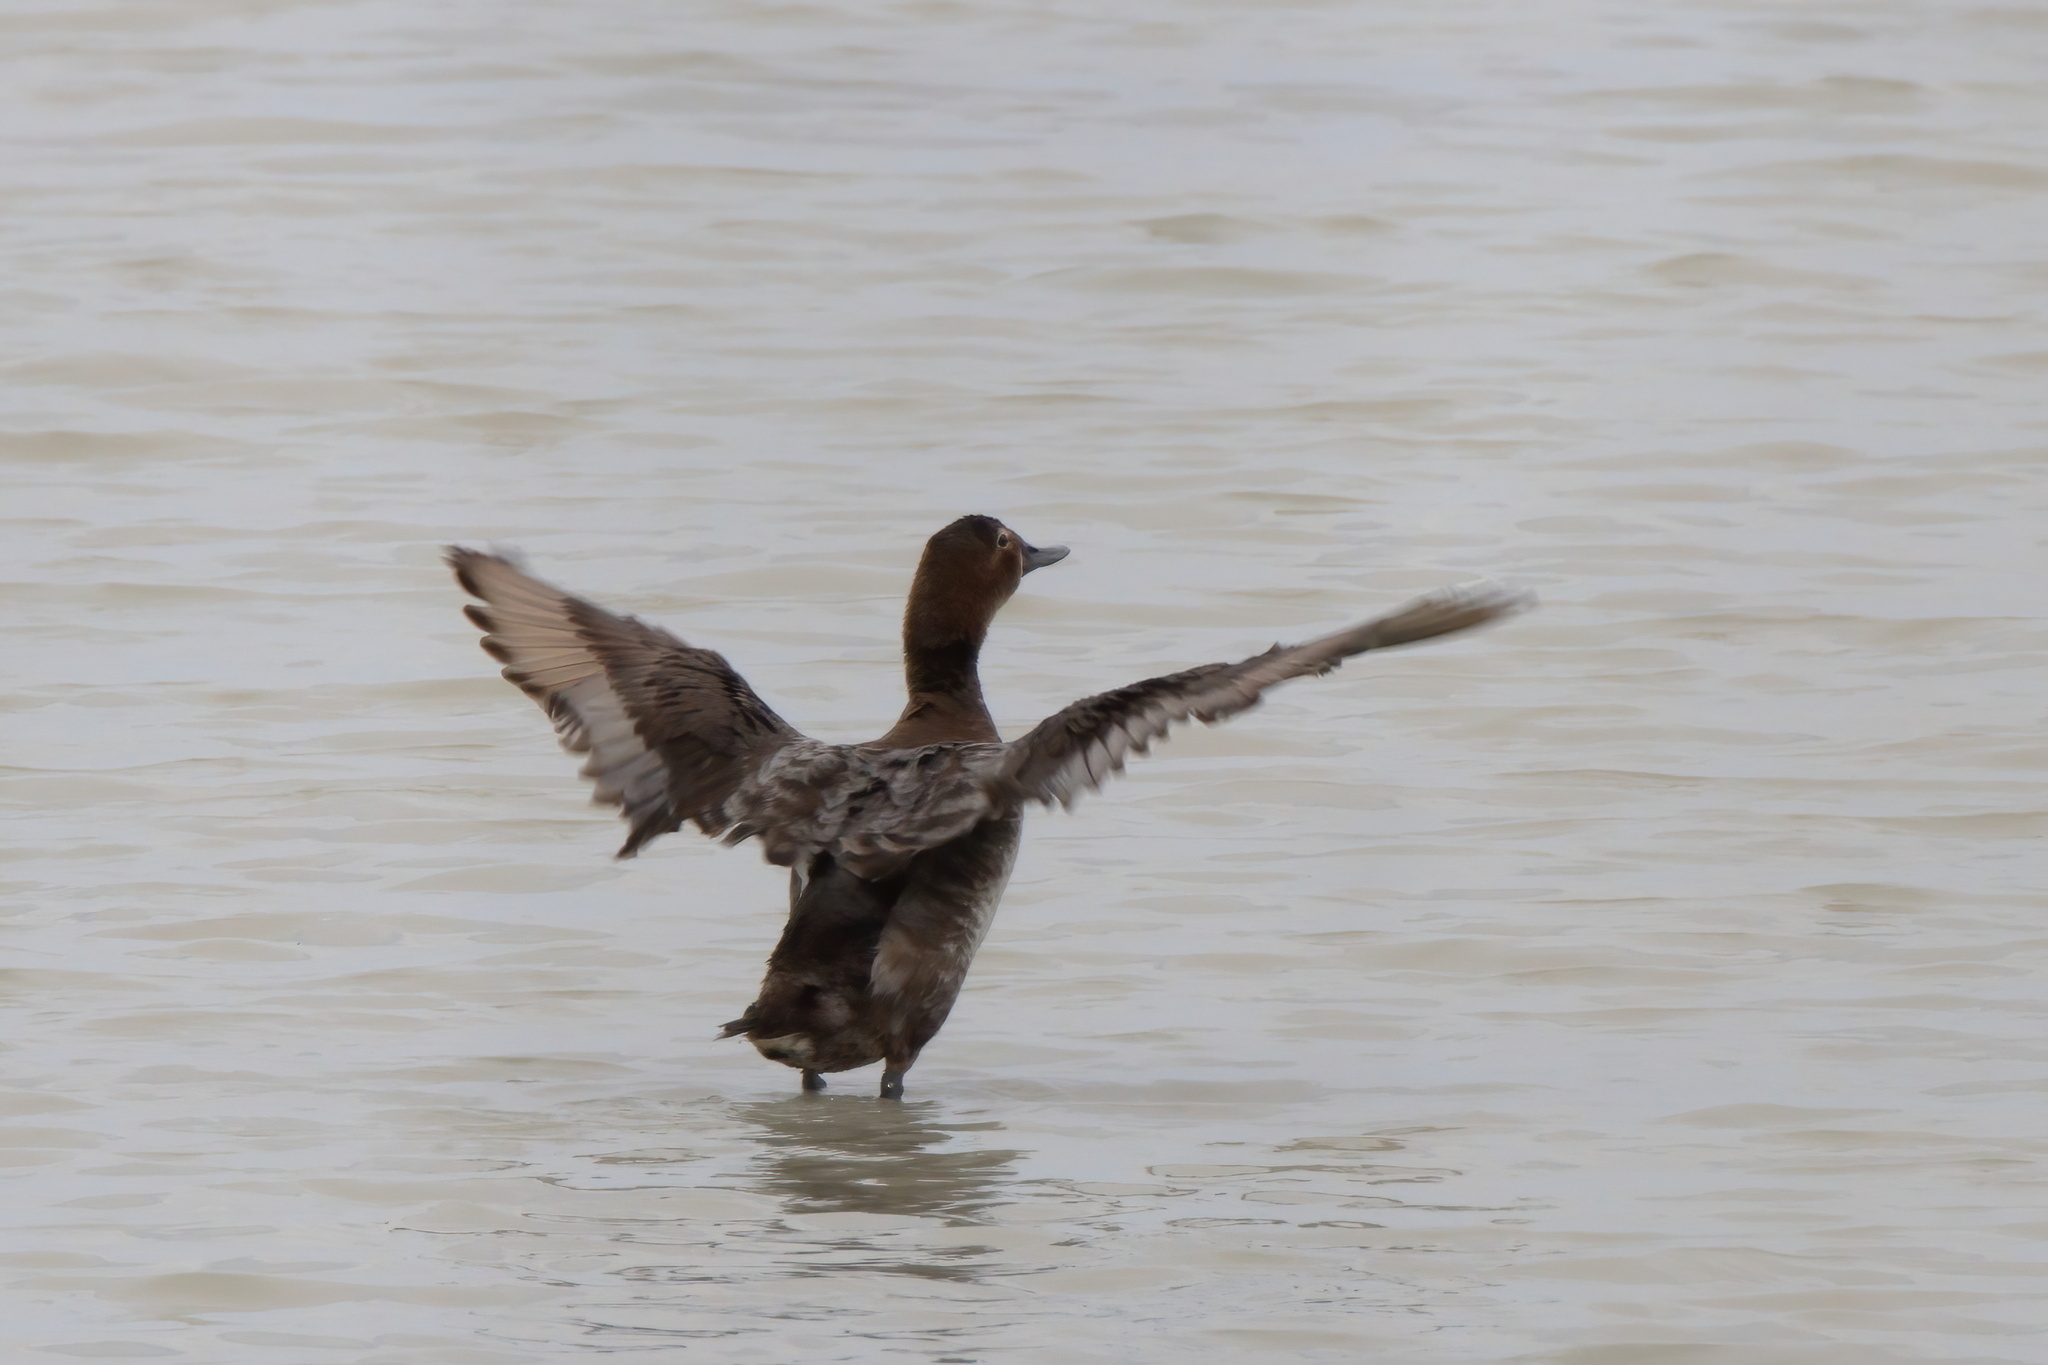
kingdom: Animalia
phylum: Chordata
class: Aves
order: Anseriformes
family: Anatidae
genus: Aythya
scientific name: Aythya americana
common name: Redhead
